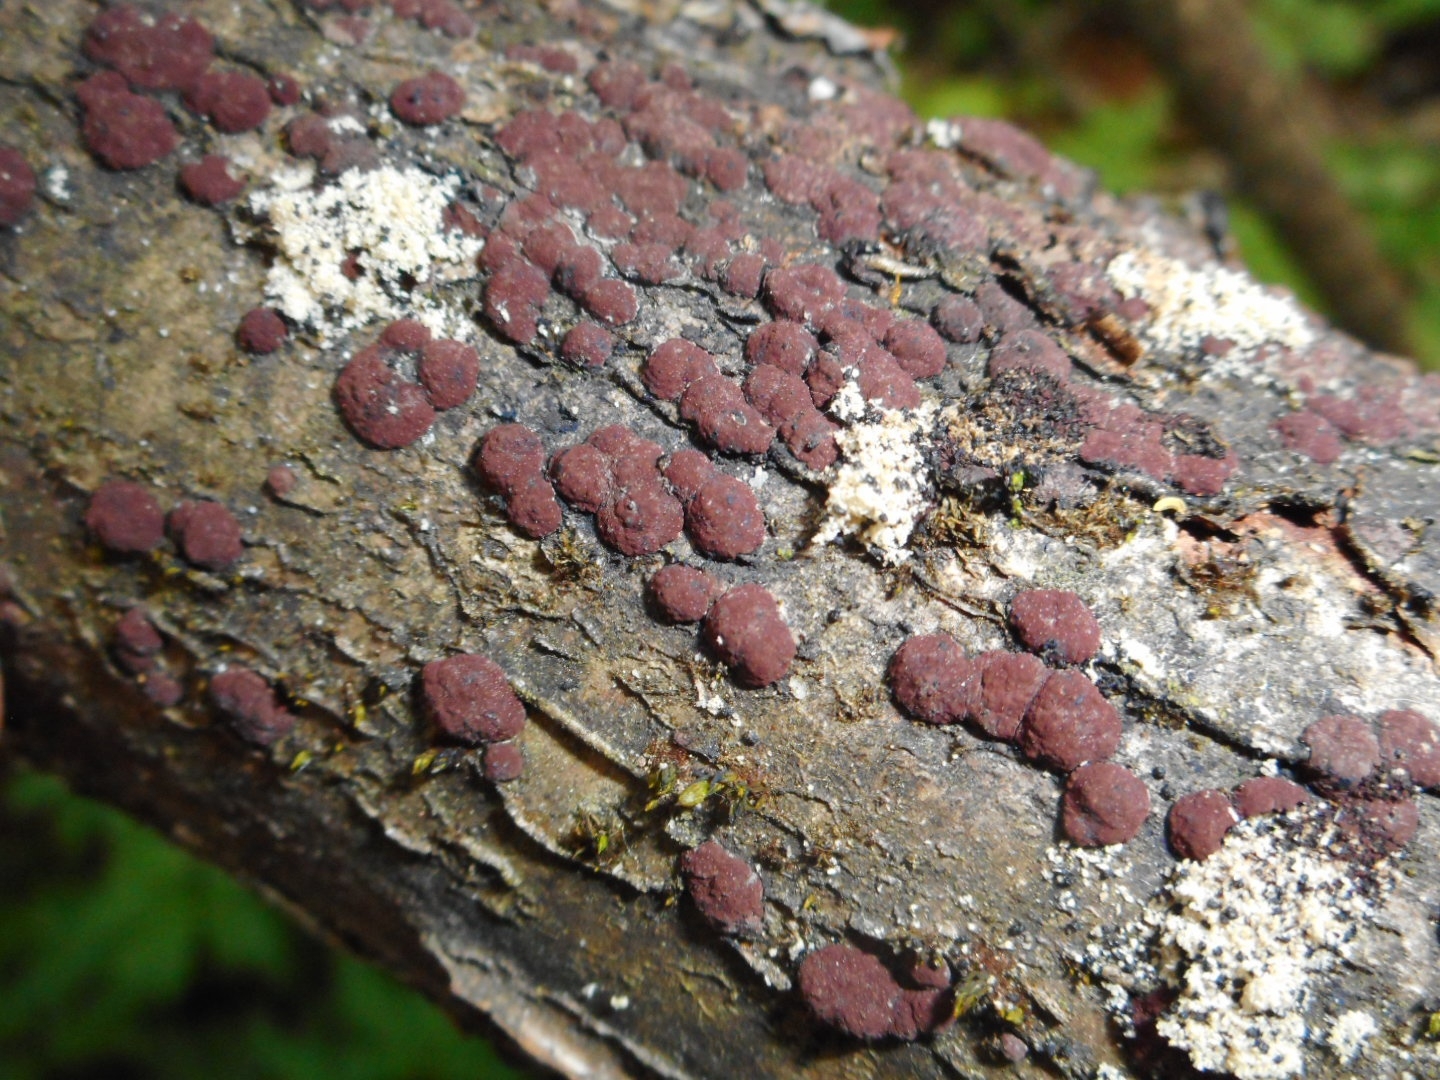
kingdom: Fungi
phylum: Ascomycota
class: Sordariomycetes
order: Xylariales
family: Hypoxylaceae
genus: Hypoxylon
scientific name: Hypoxylon fuscum
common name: Hazel woodwart
